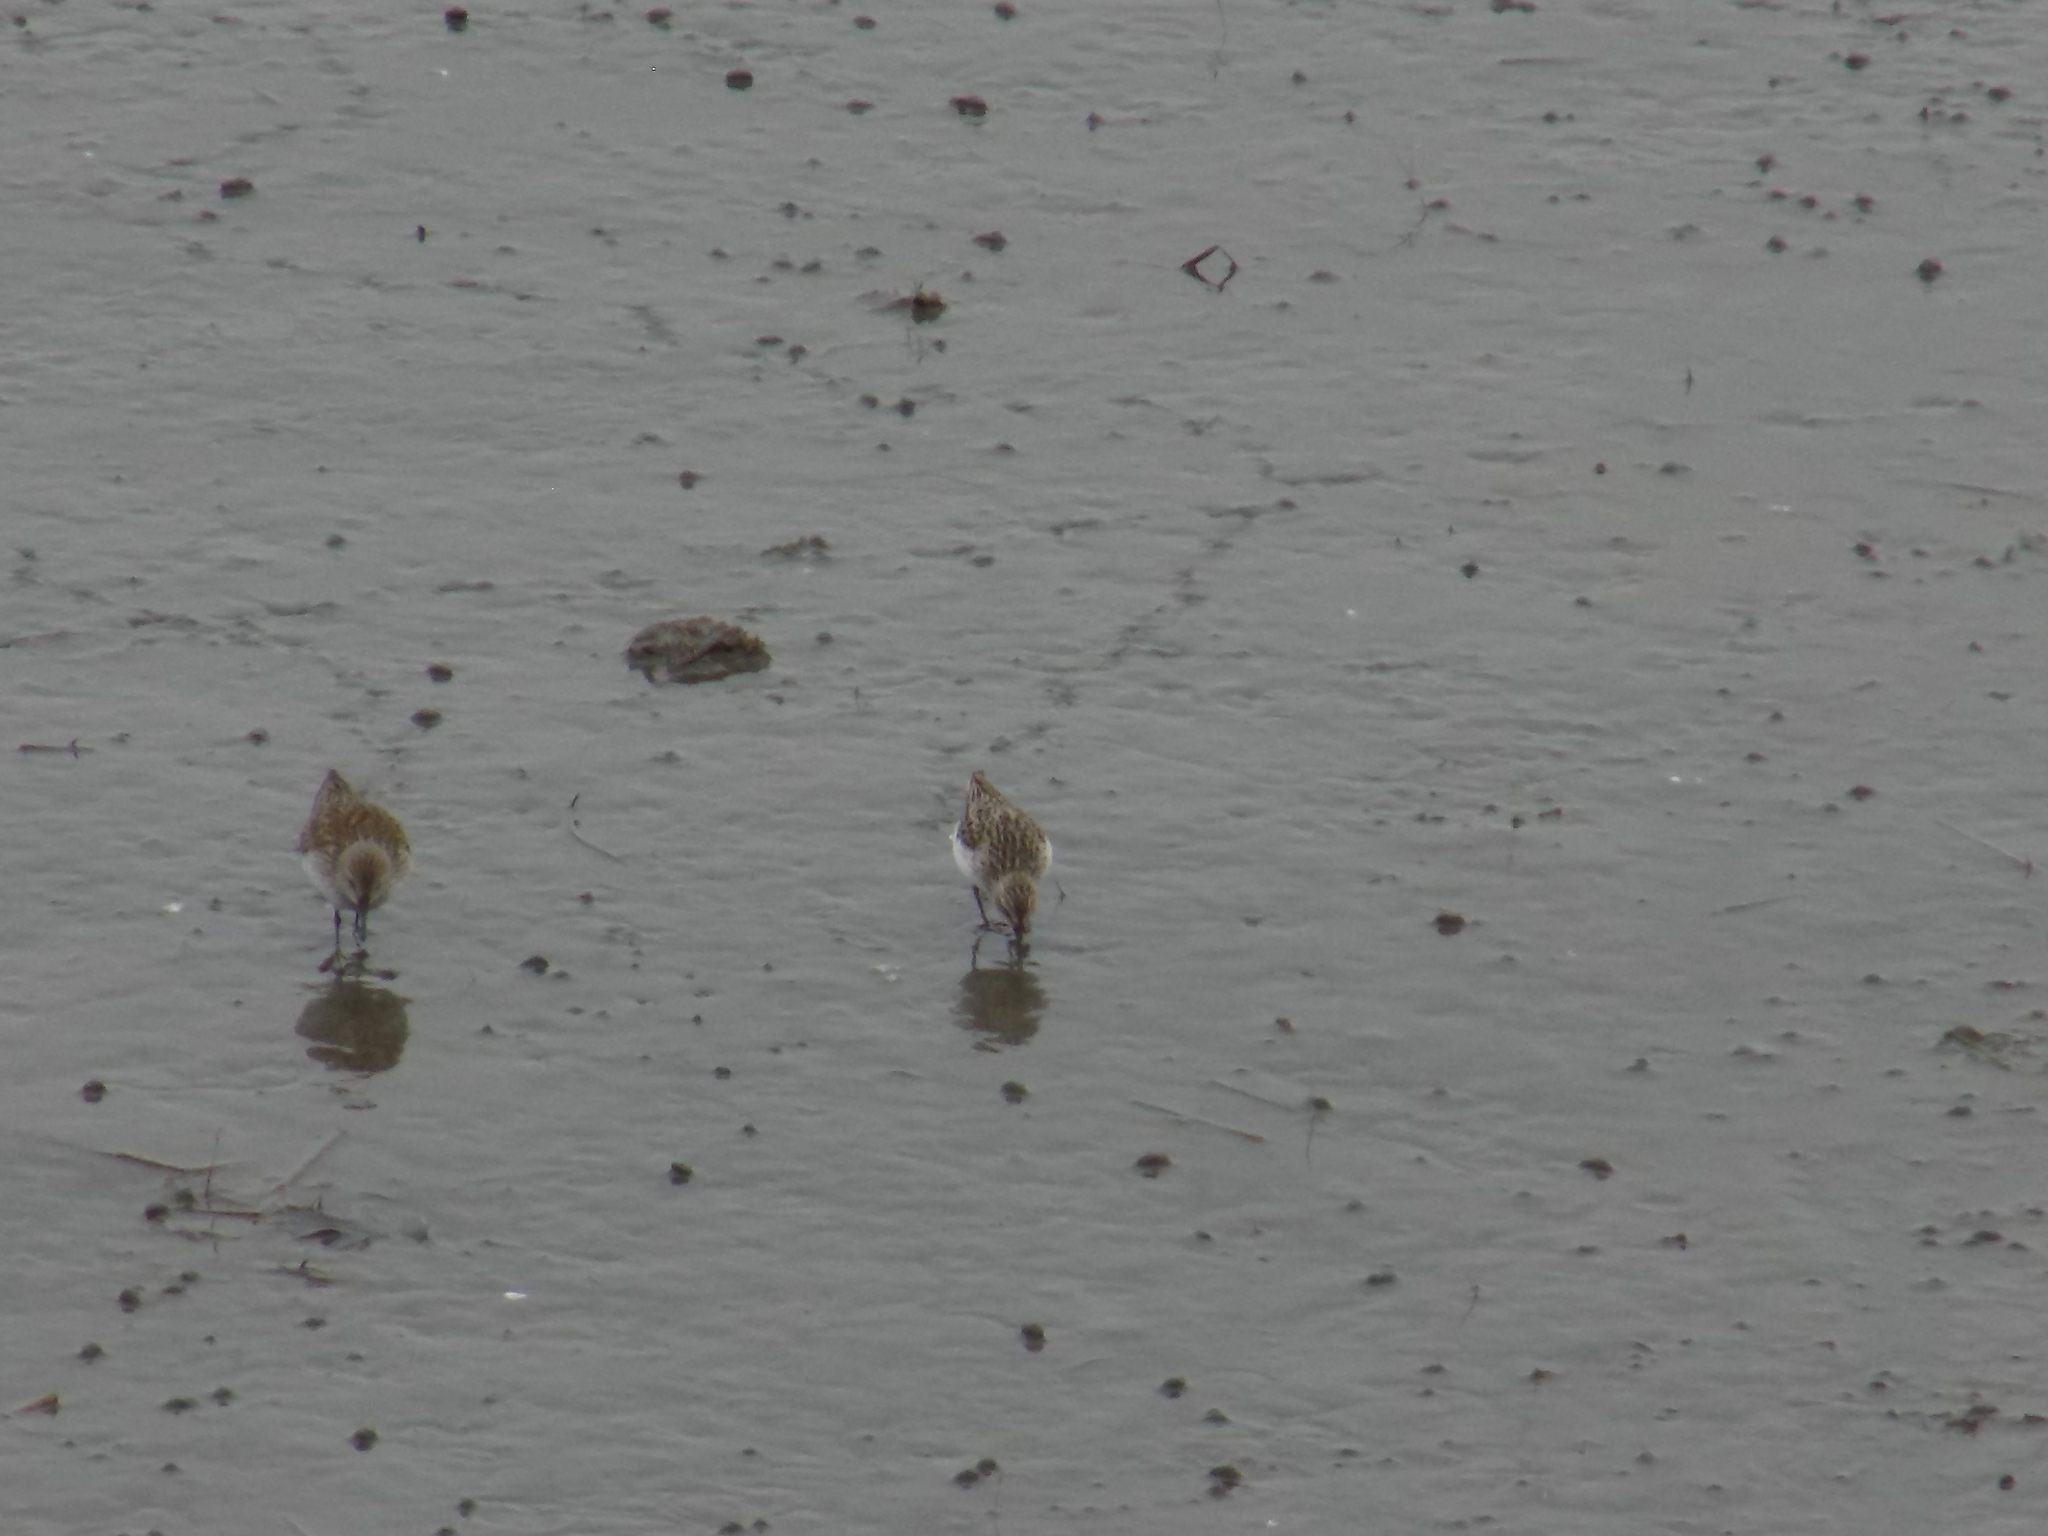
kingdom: Animalia
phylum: Chordata
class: Aves
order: Charadriiformes
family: Scolopacidae
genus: Calidris
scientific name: Calidris fuscicollis
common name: White-rumped sandpiper
